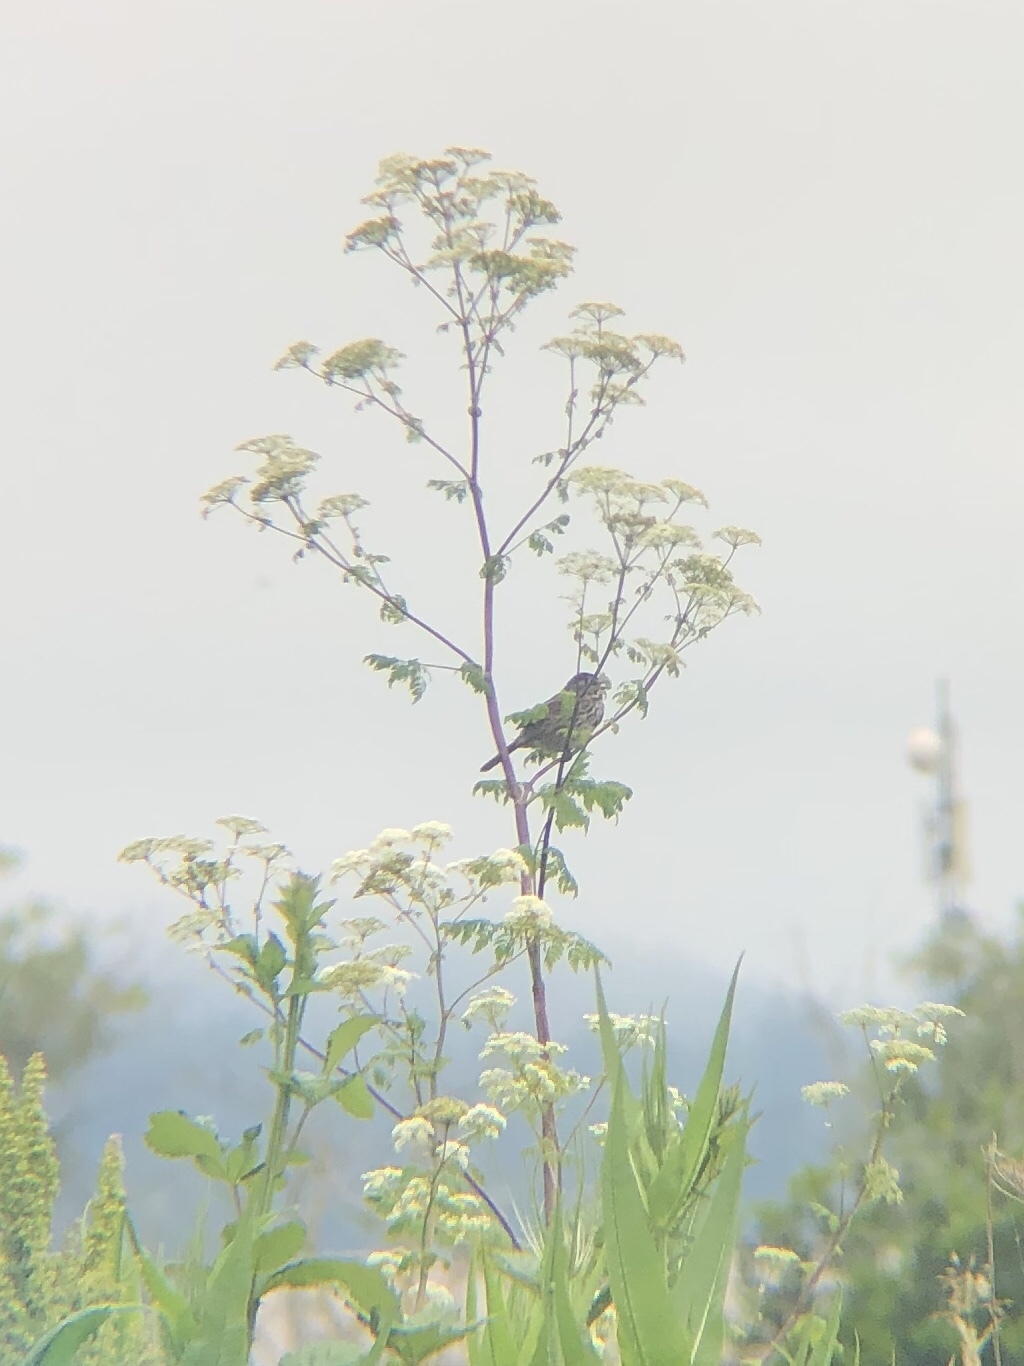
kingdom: Animalia
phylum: Chordata
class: Aves
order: Passeriformes
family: Passerellidae
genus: Melospiza
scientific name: Melospiza melodia
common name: Song sparrow
